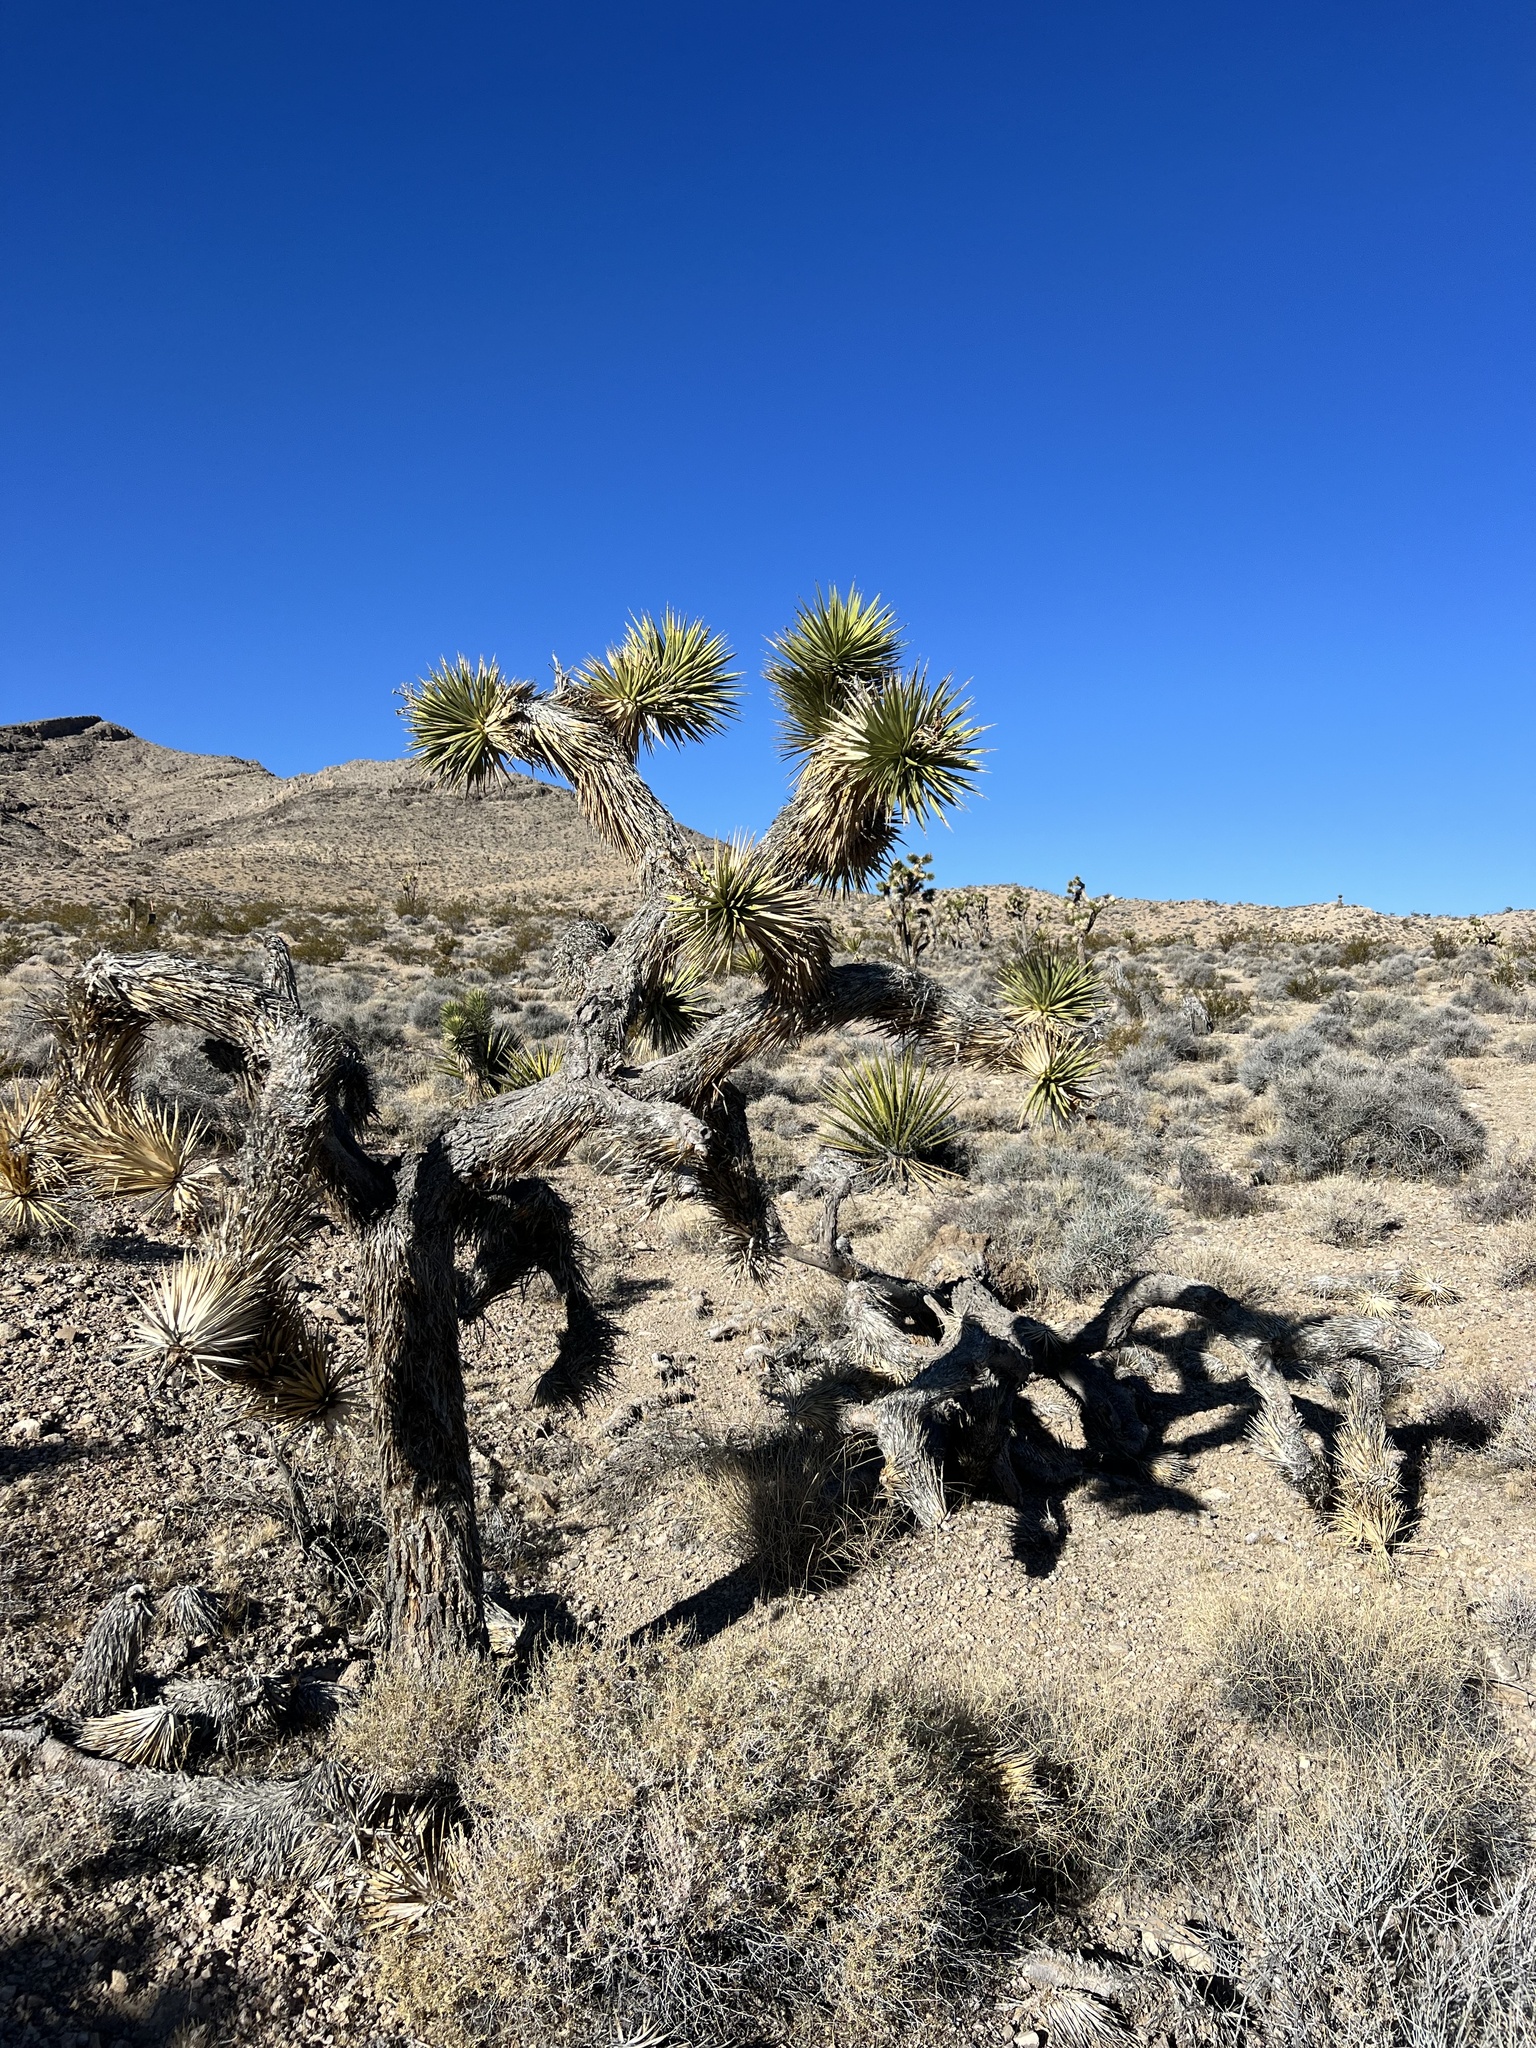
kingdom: Plantae
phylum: Tracheophyta
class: Liliopsida
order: Asparagales
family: Asparagaceae
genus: Yucca
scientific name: Yucca brevifolia
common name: Joshua tree
